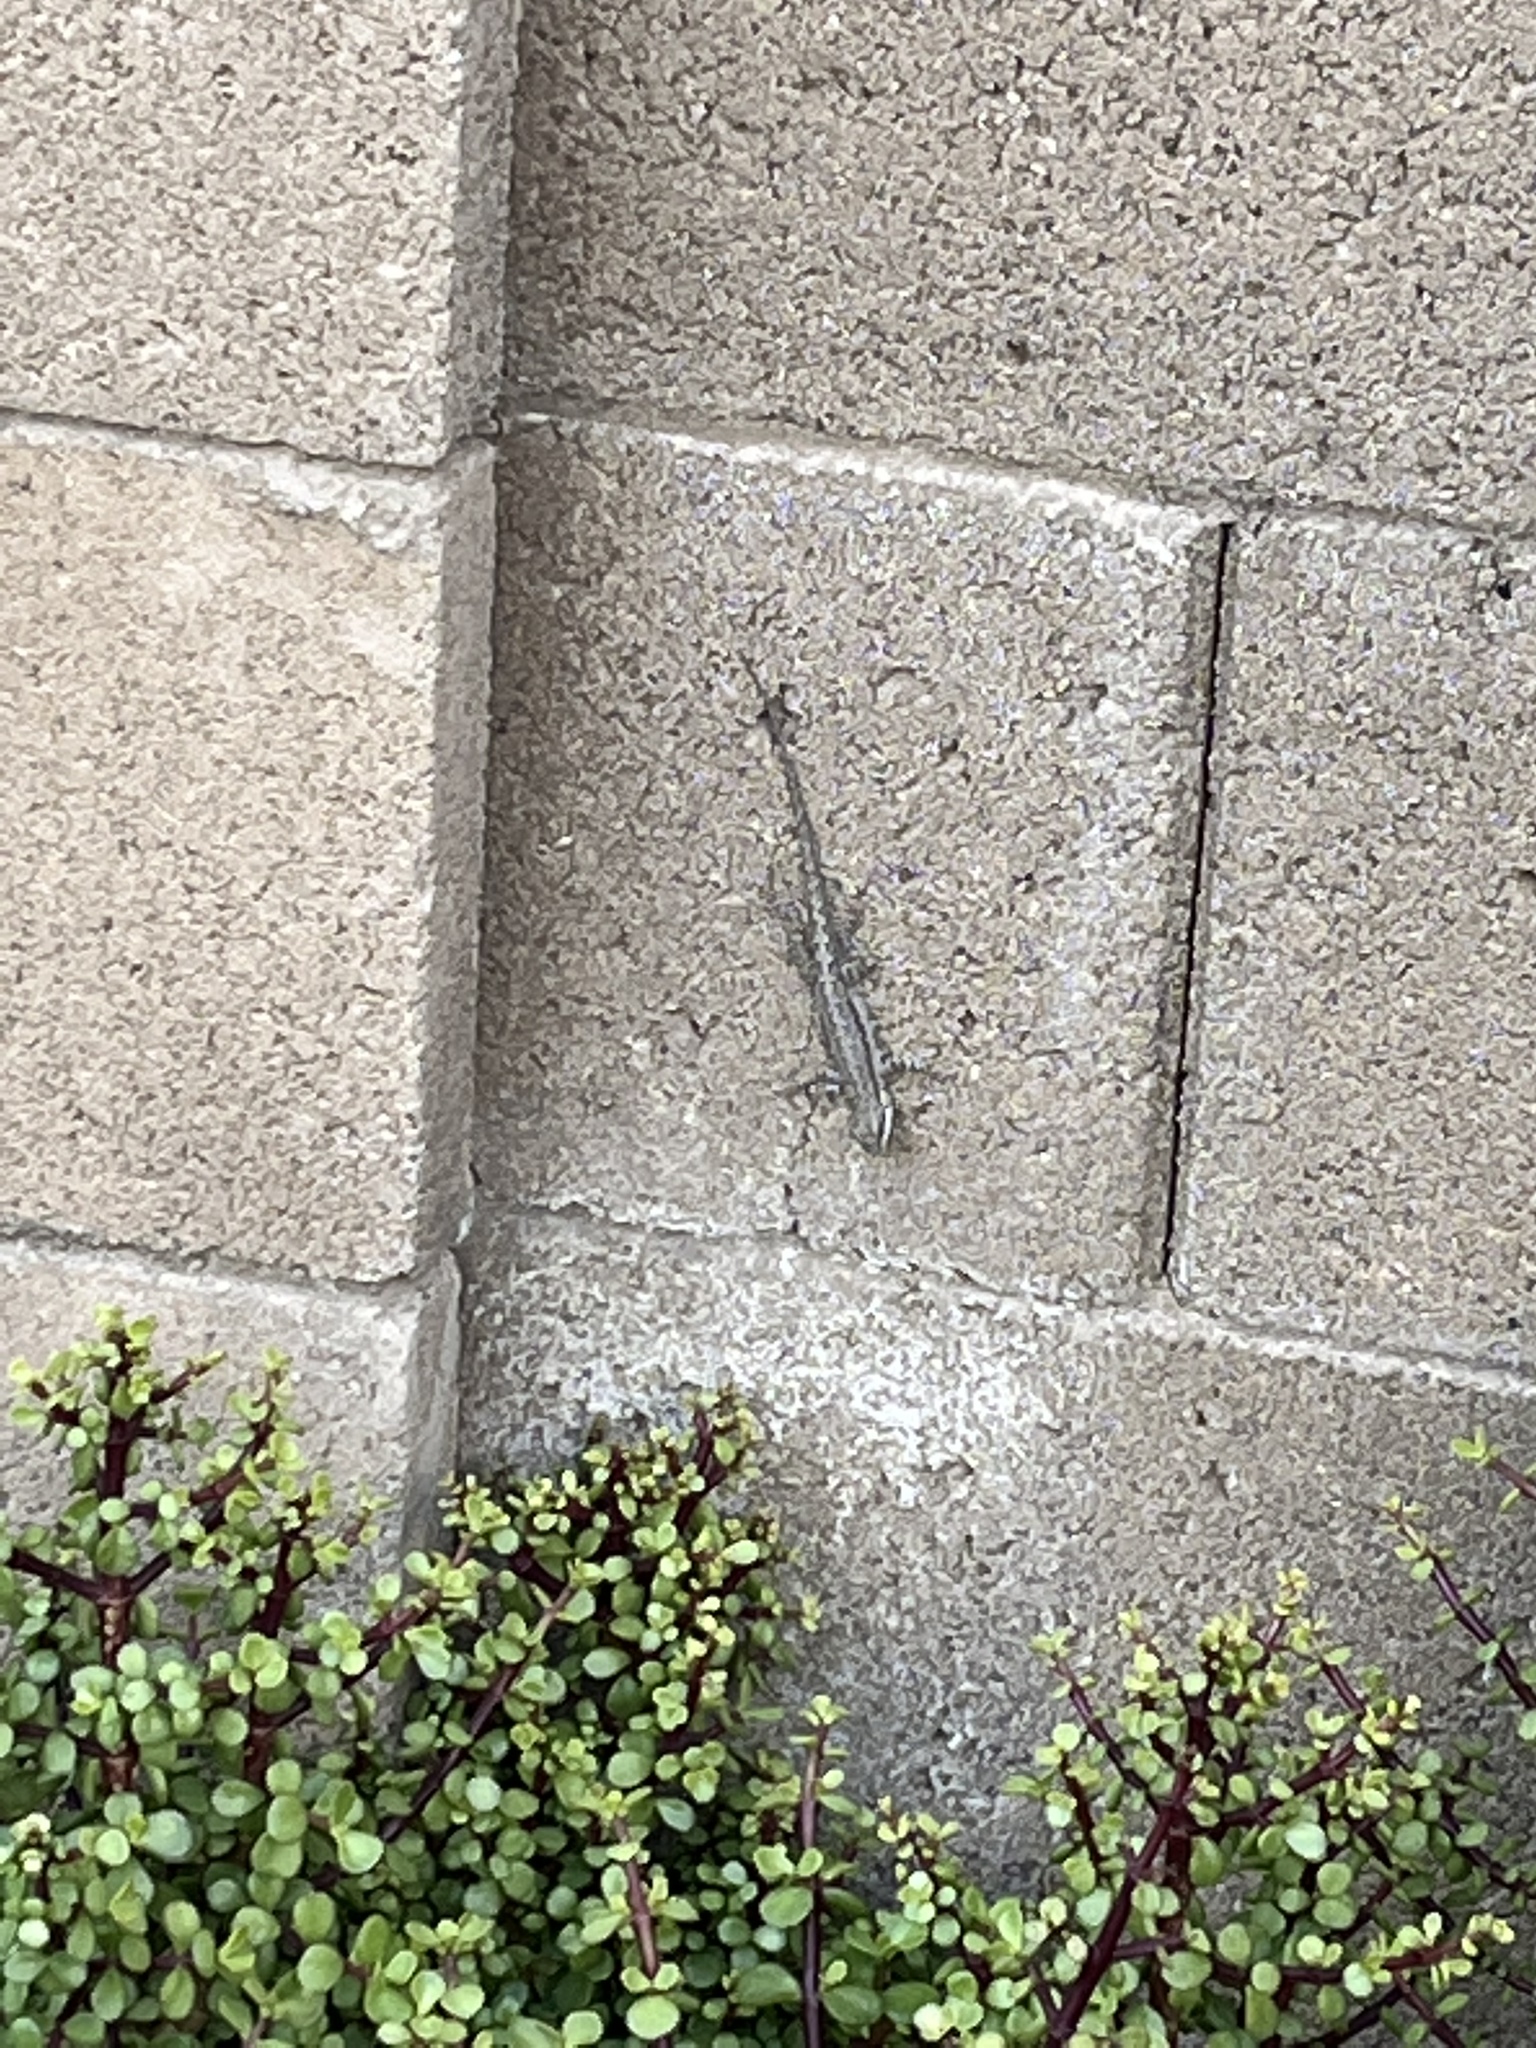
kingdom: Animalia
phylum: Chordata
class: Squamata
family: Phrynosomatidae
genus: Urosaurus
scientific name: Urosaurus ornatus
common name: Ornate tree lizard
